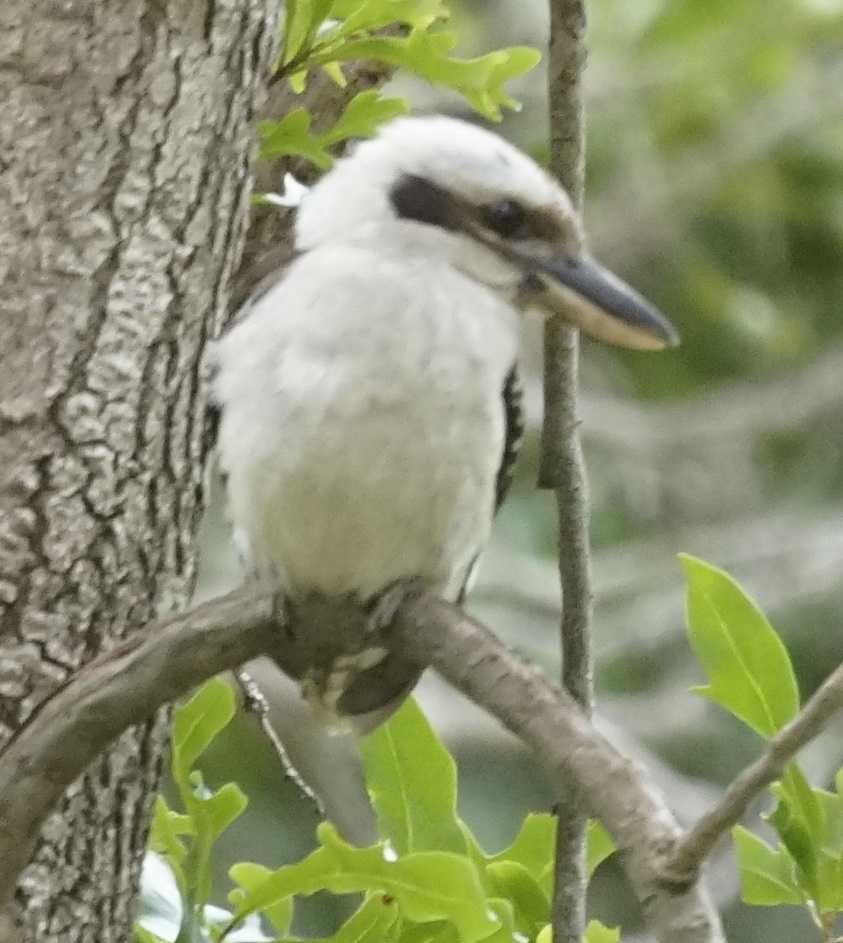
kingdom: Animalia
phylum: Chordata
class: Aves
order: Coraciiformes
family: Alcedinidae
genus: Dacelo
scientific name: Dacelo novaeguineae
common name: Laughing kookaburra
